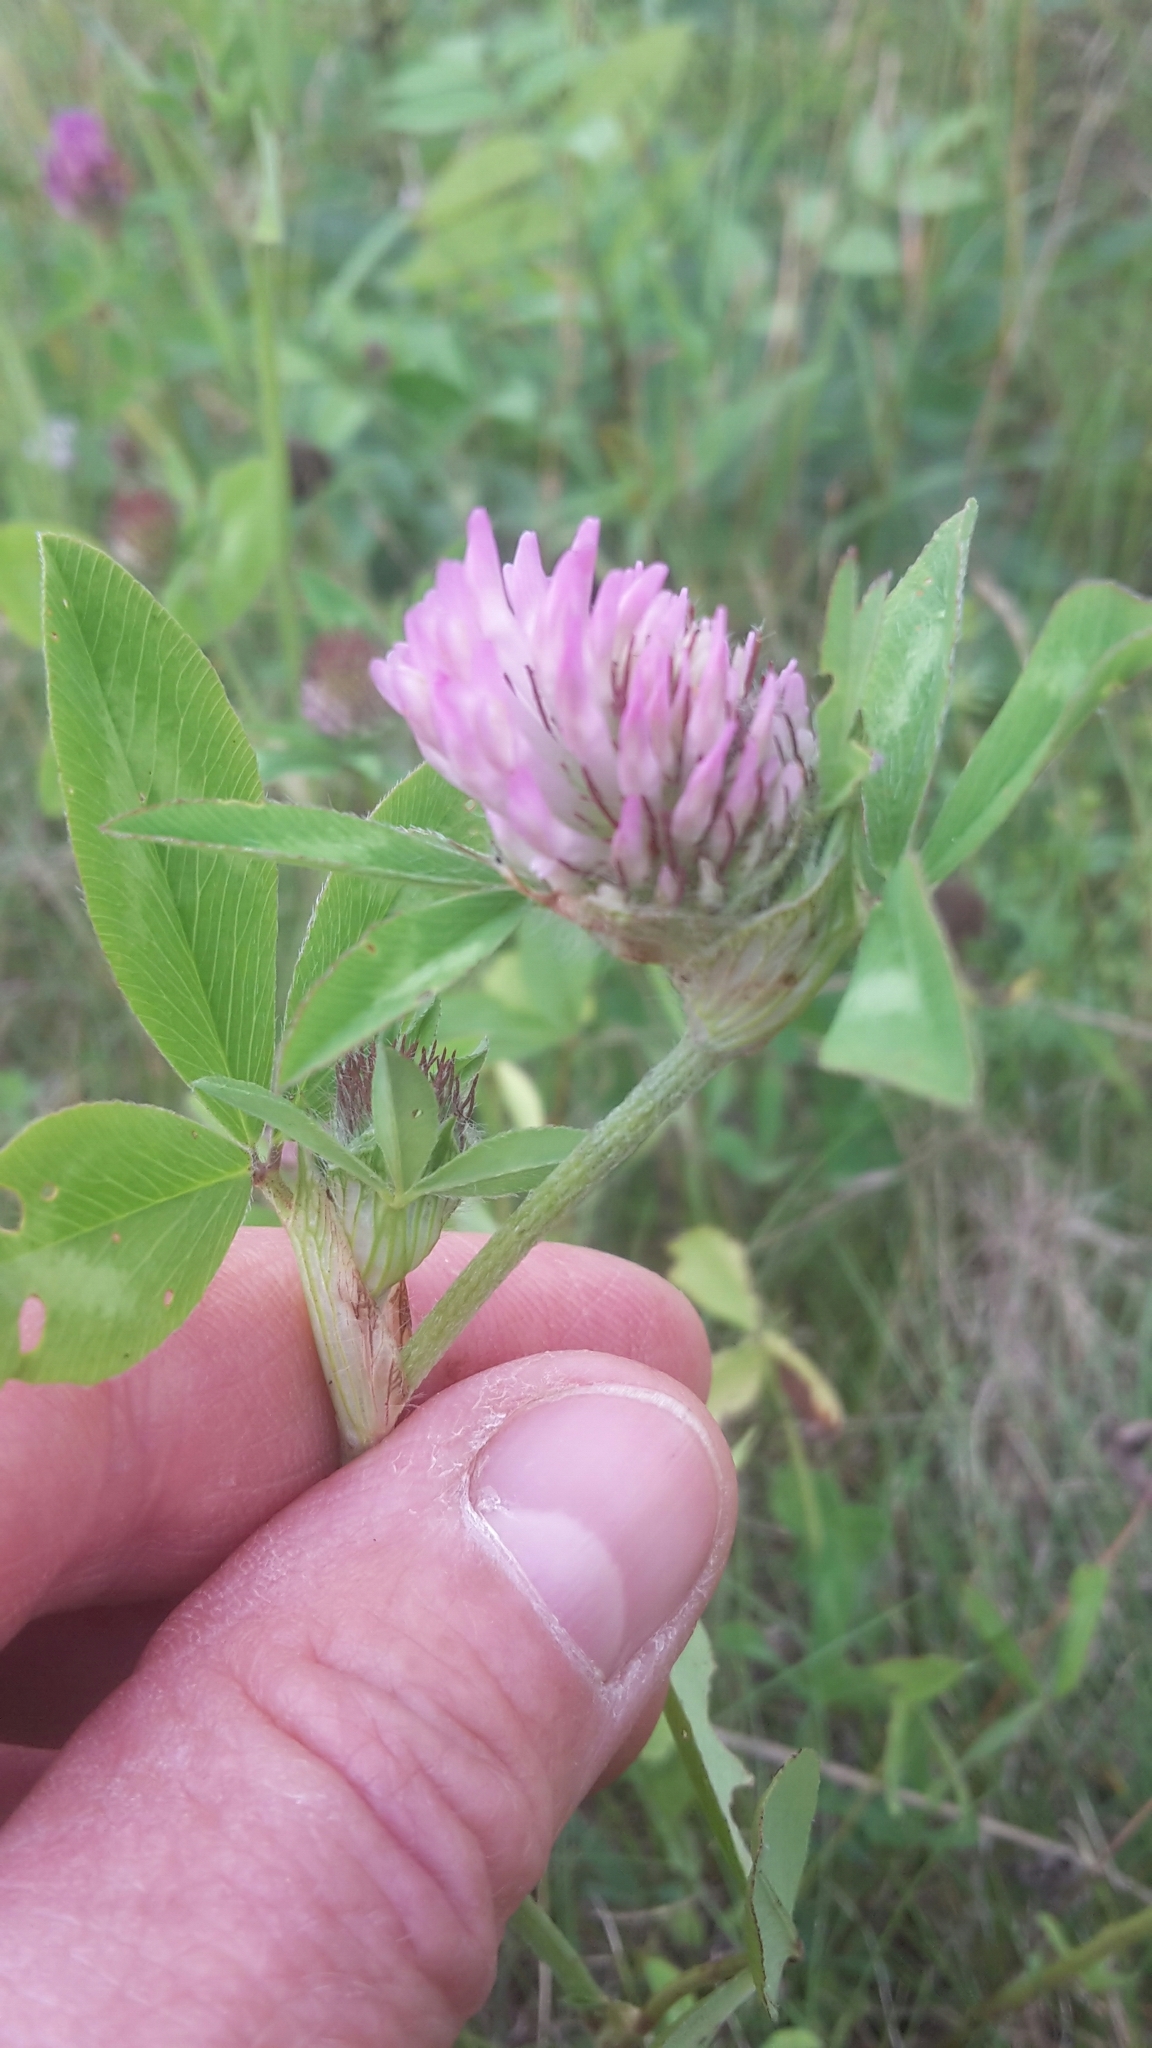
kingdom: Plantae
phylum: Tracheophyta
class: Magnoliopsida
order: Fabales
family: Fabaceae
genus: Trifolium
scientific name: Trifolium pratense
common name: Red clover
